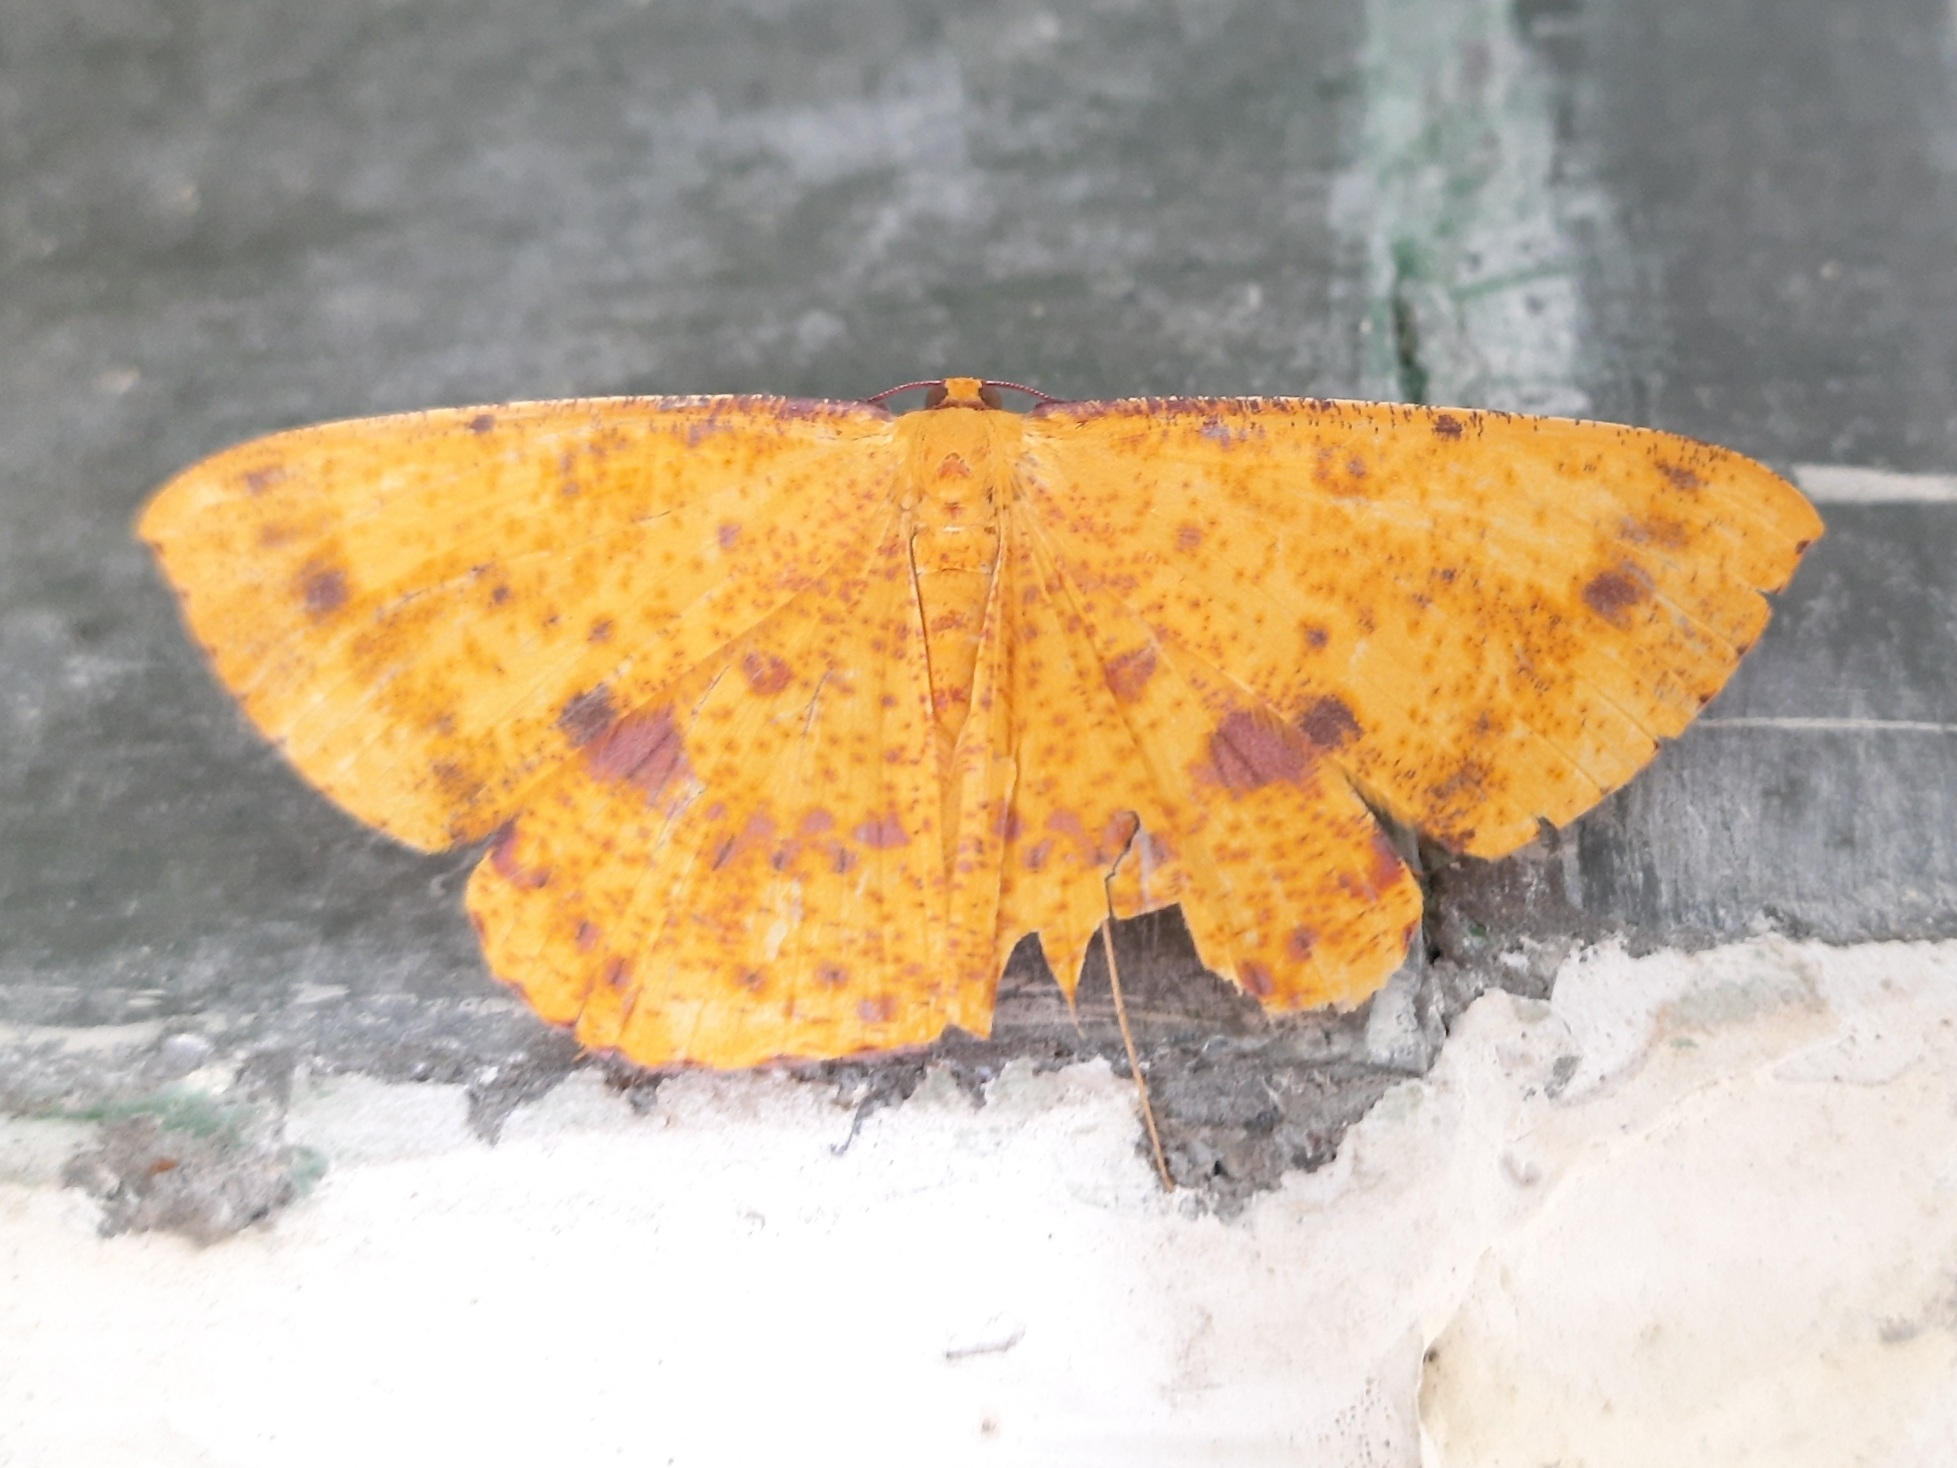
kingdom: Animalia
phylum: Arthropoda
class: Insecta
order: Lepidoptera
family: Geometridae
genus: Eumelea
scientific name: Eumelea ludovicata
